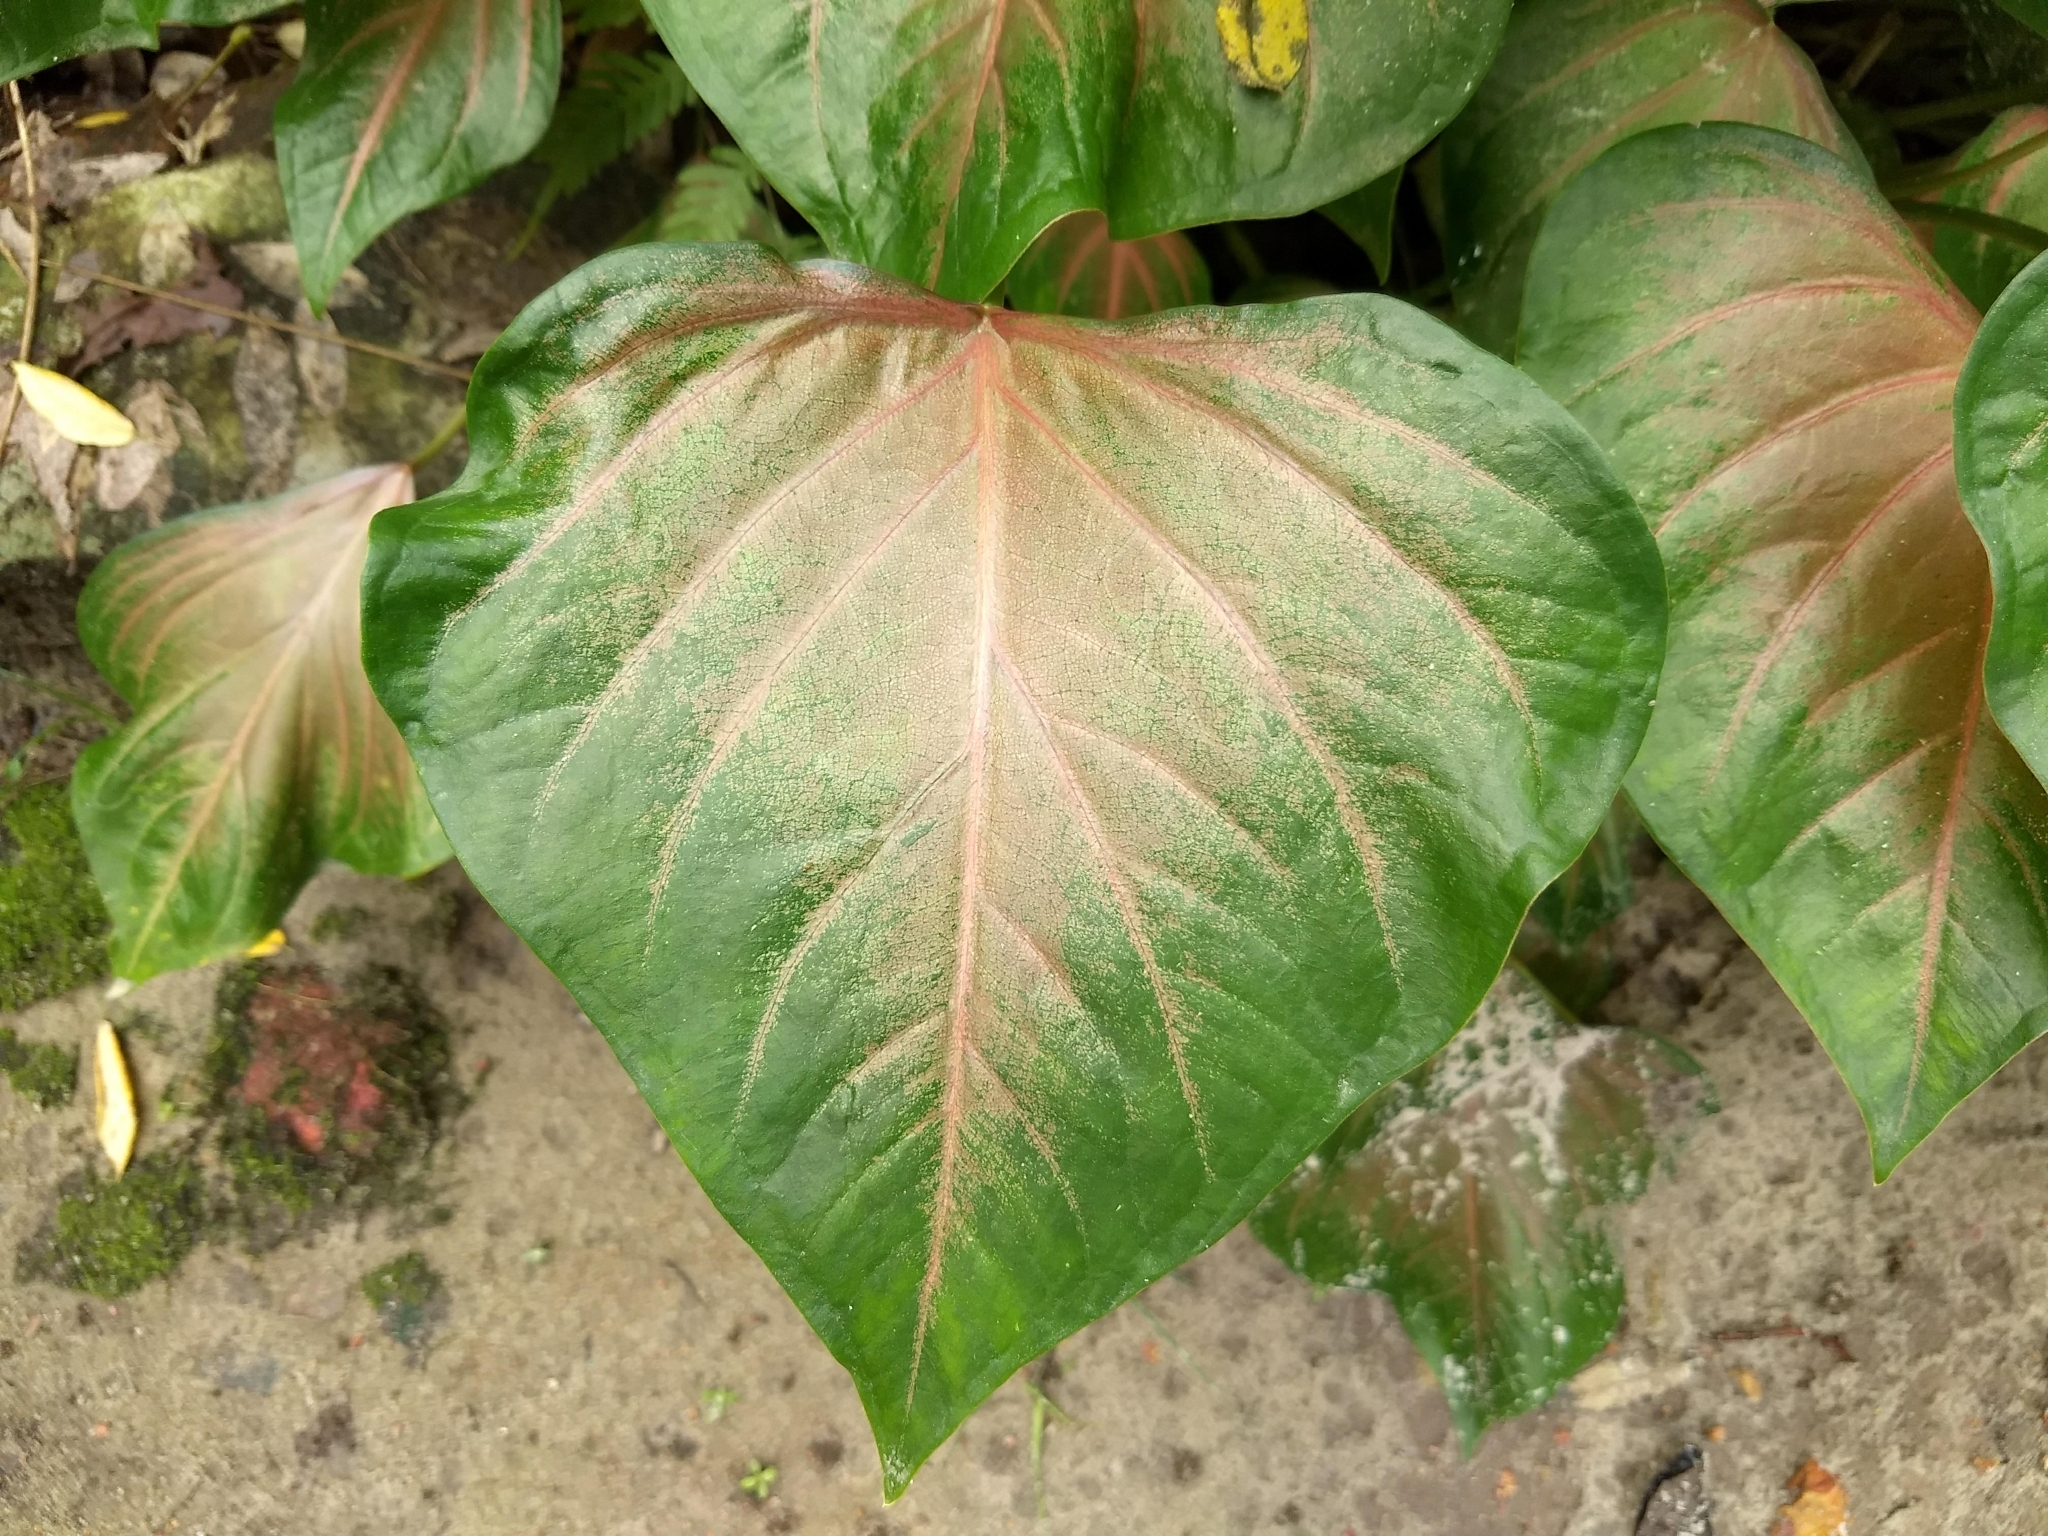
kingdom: Plantae
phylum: Tracheophyta
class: Liliopsida
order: Alismatales
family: Araceae
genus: Caladium
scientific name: Caladium schomburgkii
